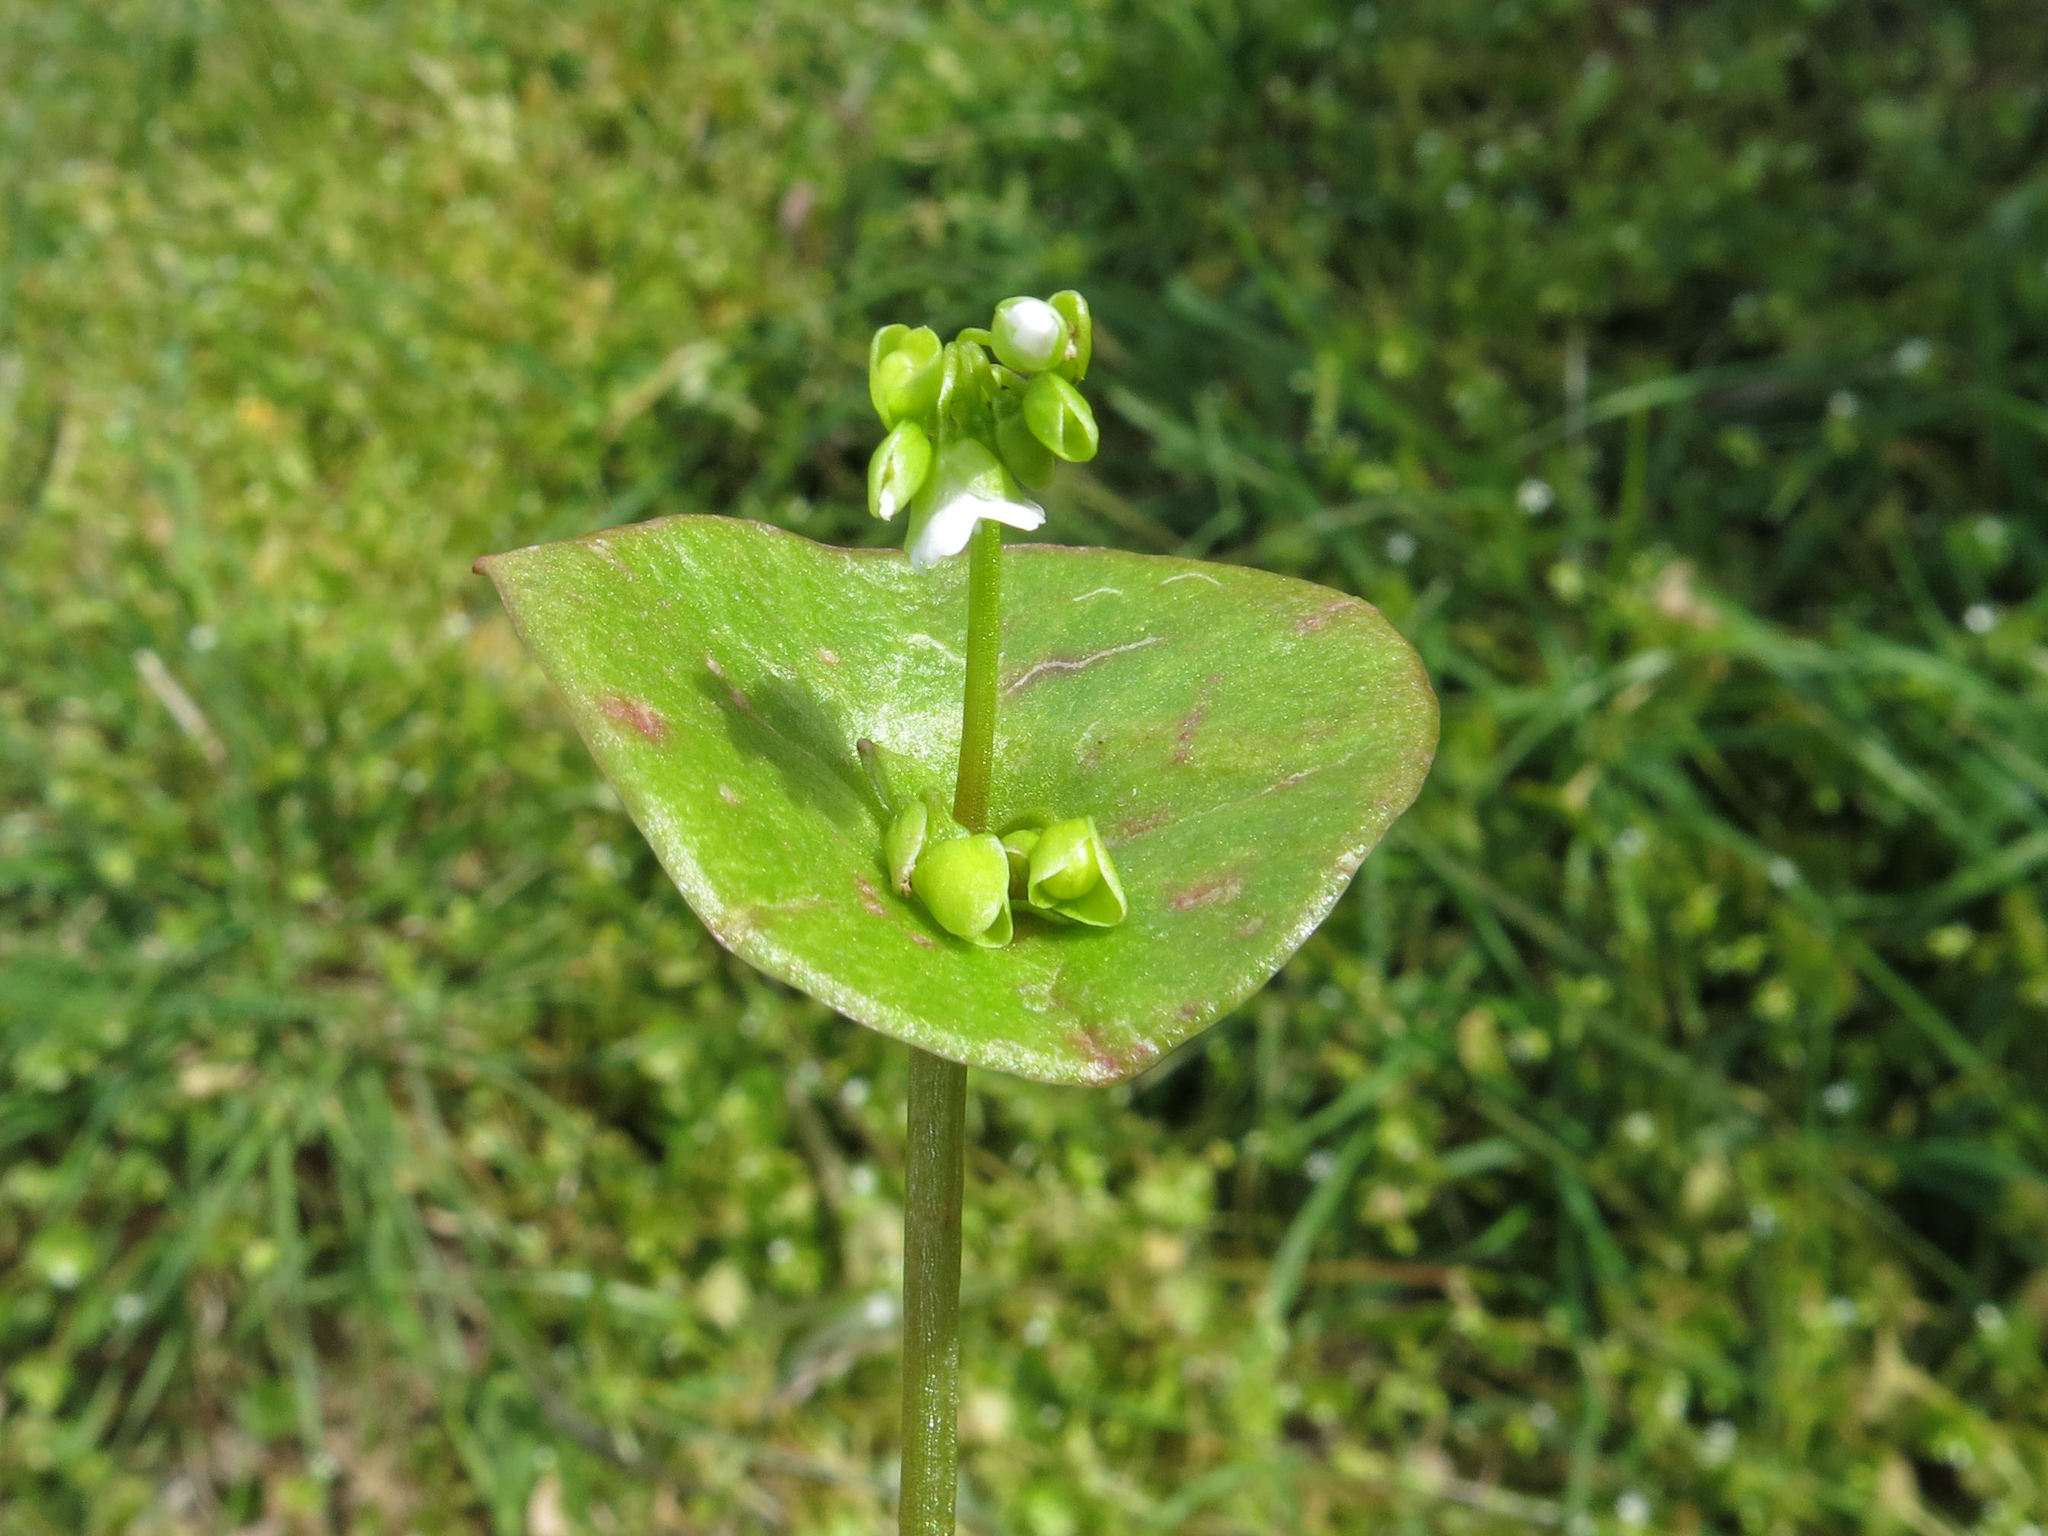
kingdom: Plantae
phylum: Tracheophyta
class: Magnoliopsida
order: Caryophyllales
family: Montiaceae
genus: Claytonia
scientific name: Claytonia perfoliata
